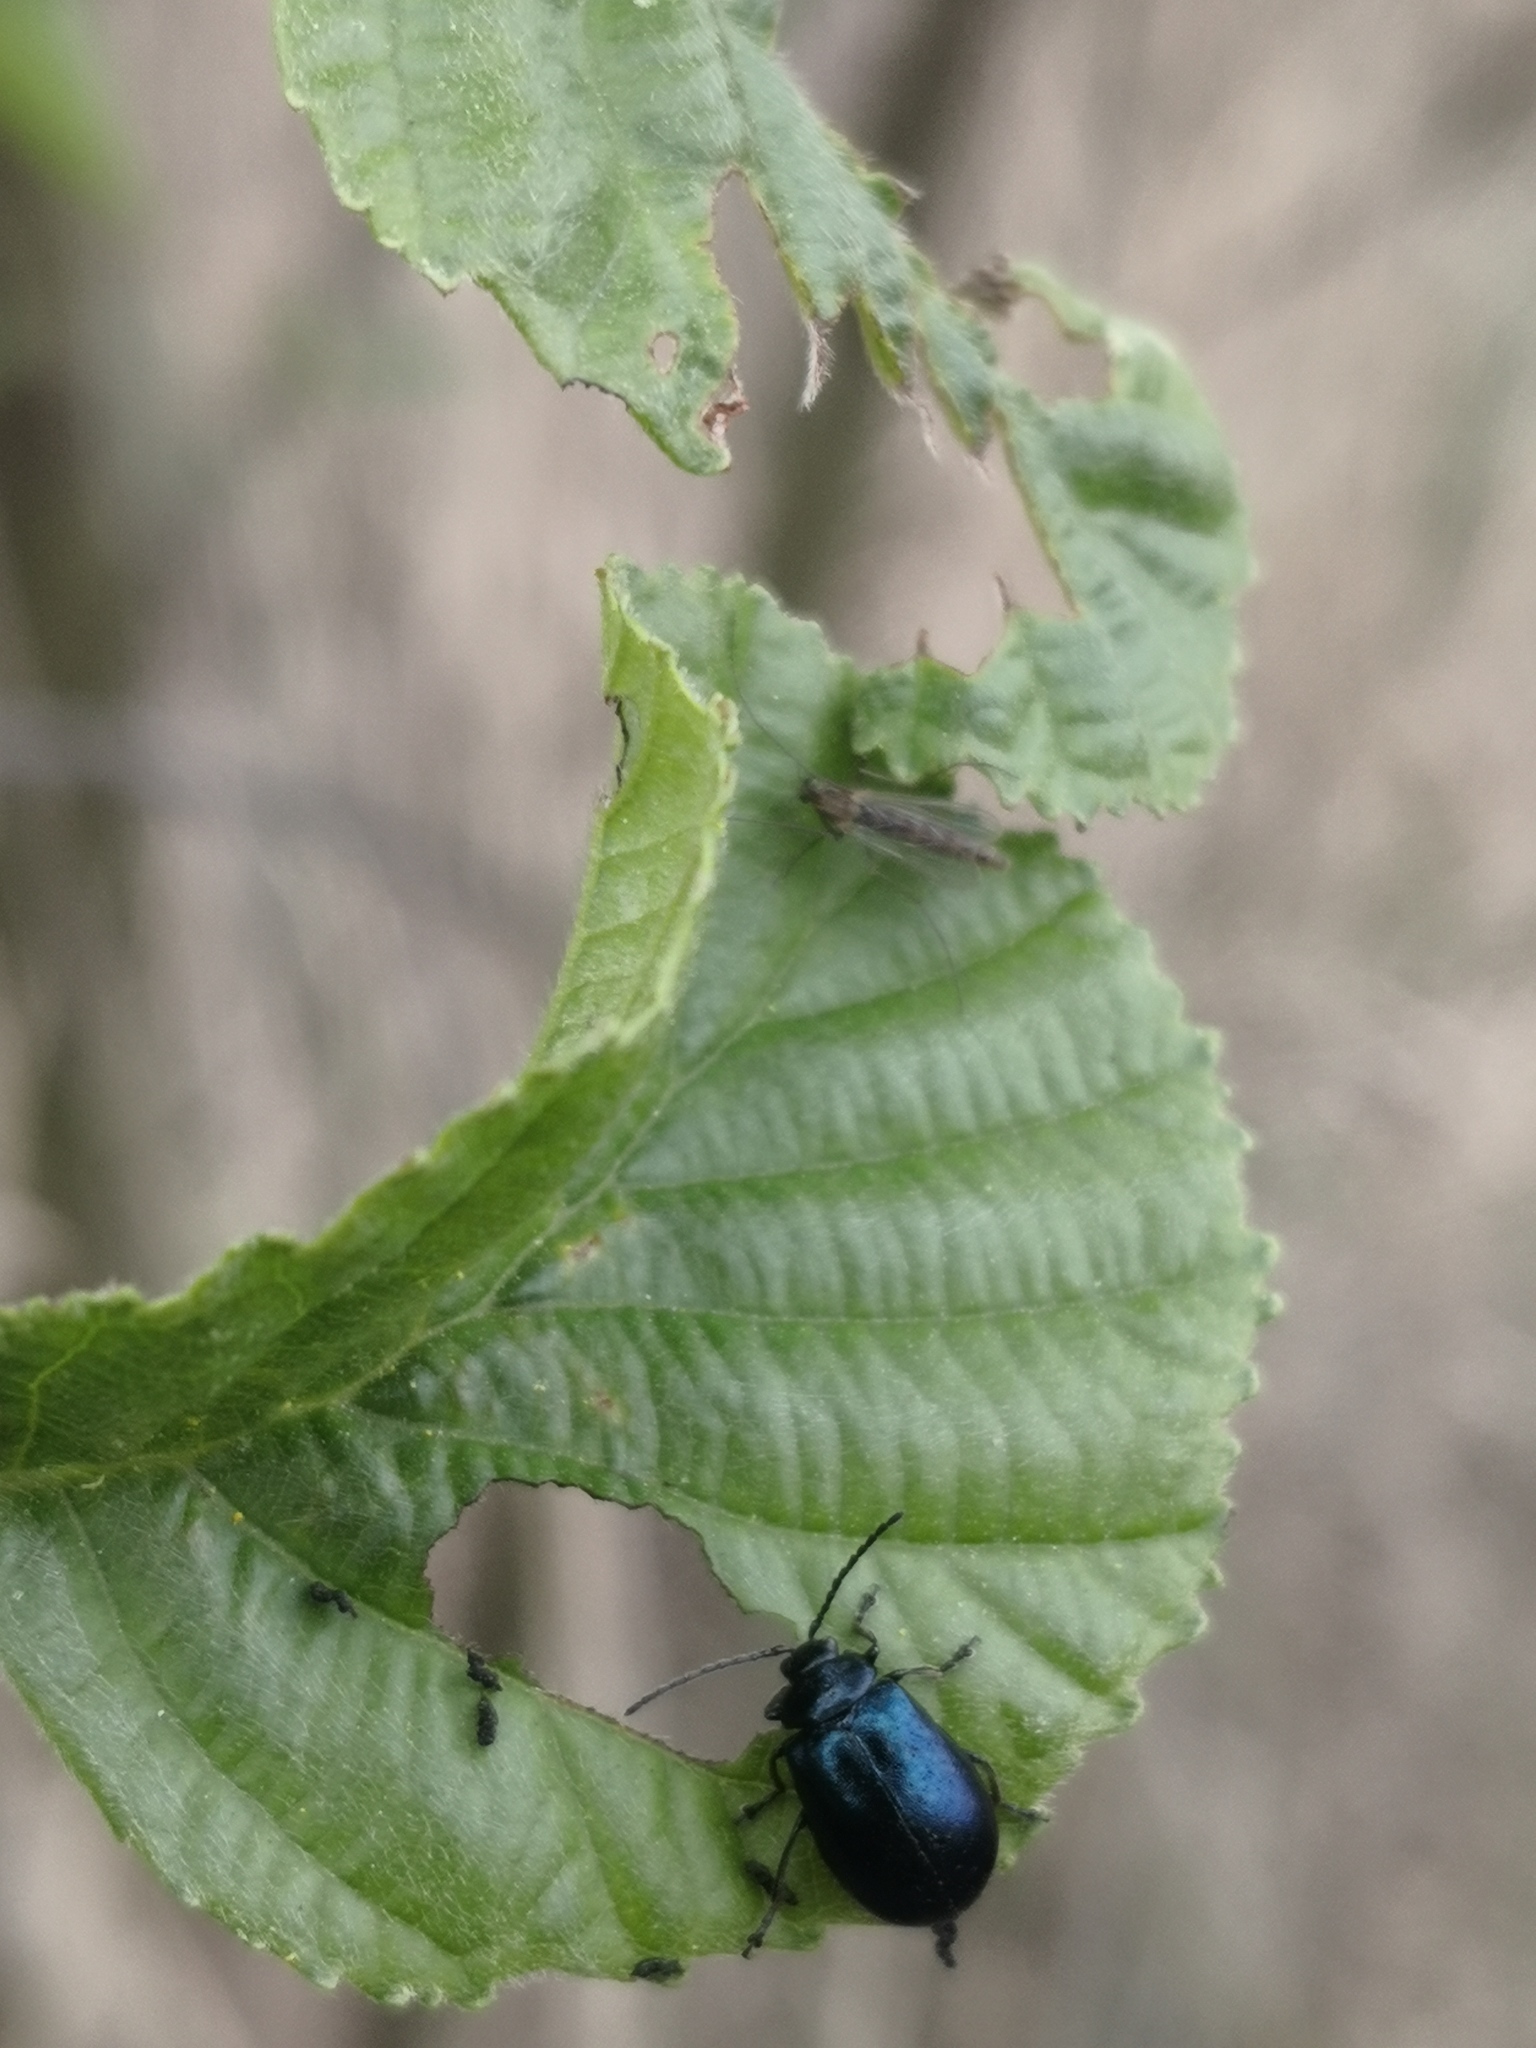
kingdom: Animalia
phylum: Arthropoda
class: Insecta
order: Coleoptera
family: Chrysomelidae
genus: Agelastica
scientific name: Agelastica alni
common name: Alder leaf beetle
